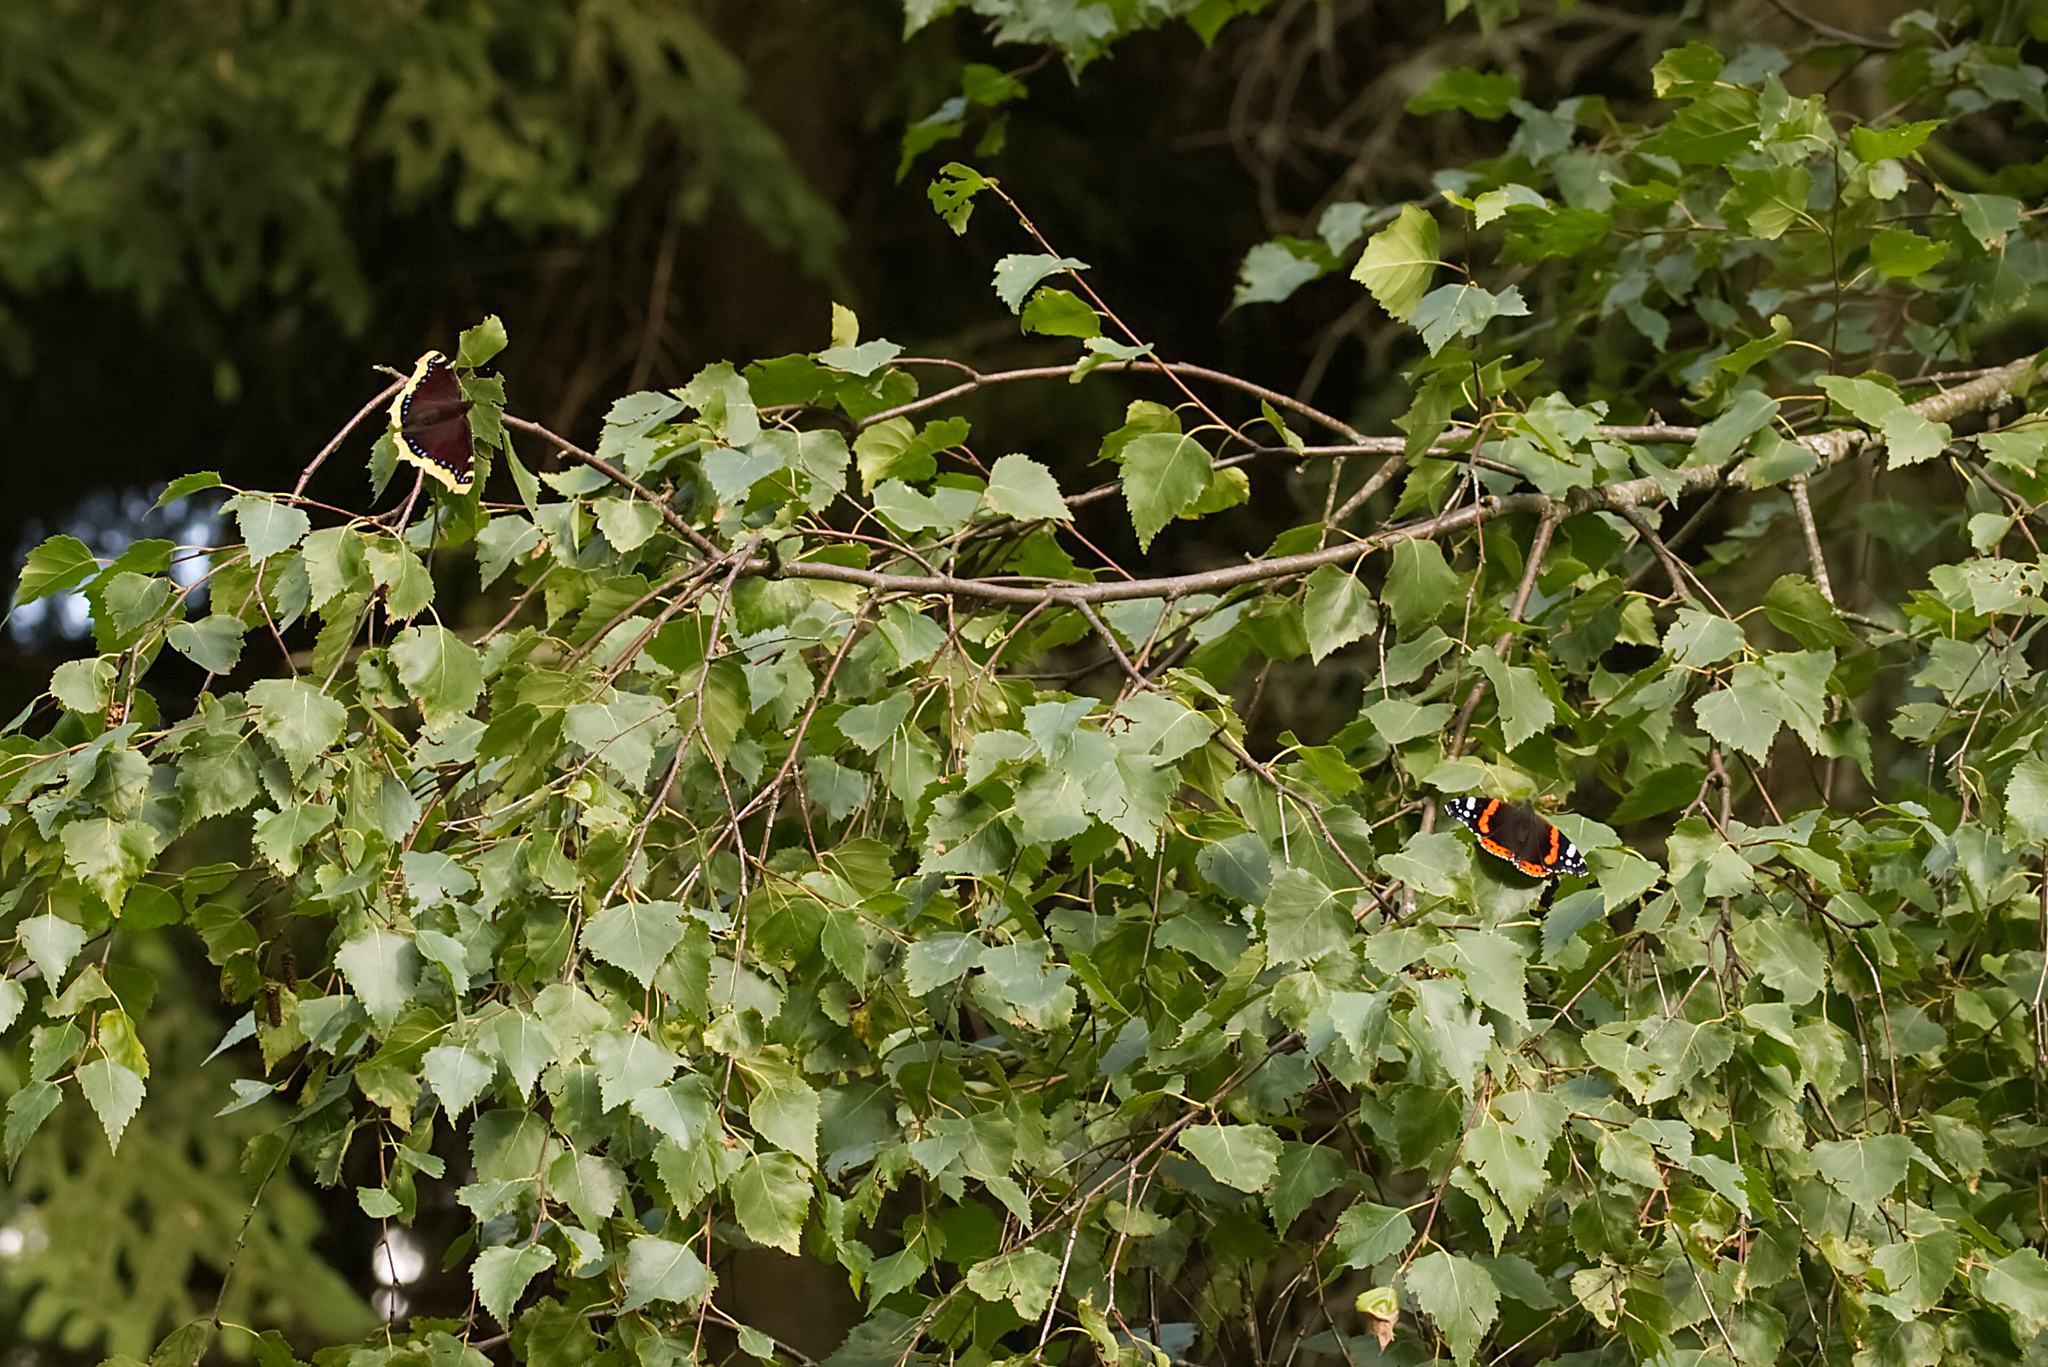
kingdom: Animalia
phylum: Arthropoda
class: Insecta
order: Lepidoptera
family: Nymphalidae
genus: Vanessa
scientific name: Vanessa atalanta
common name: Red admiral
